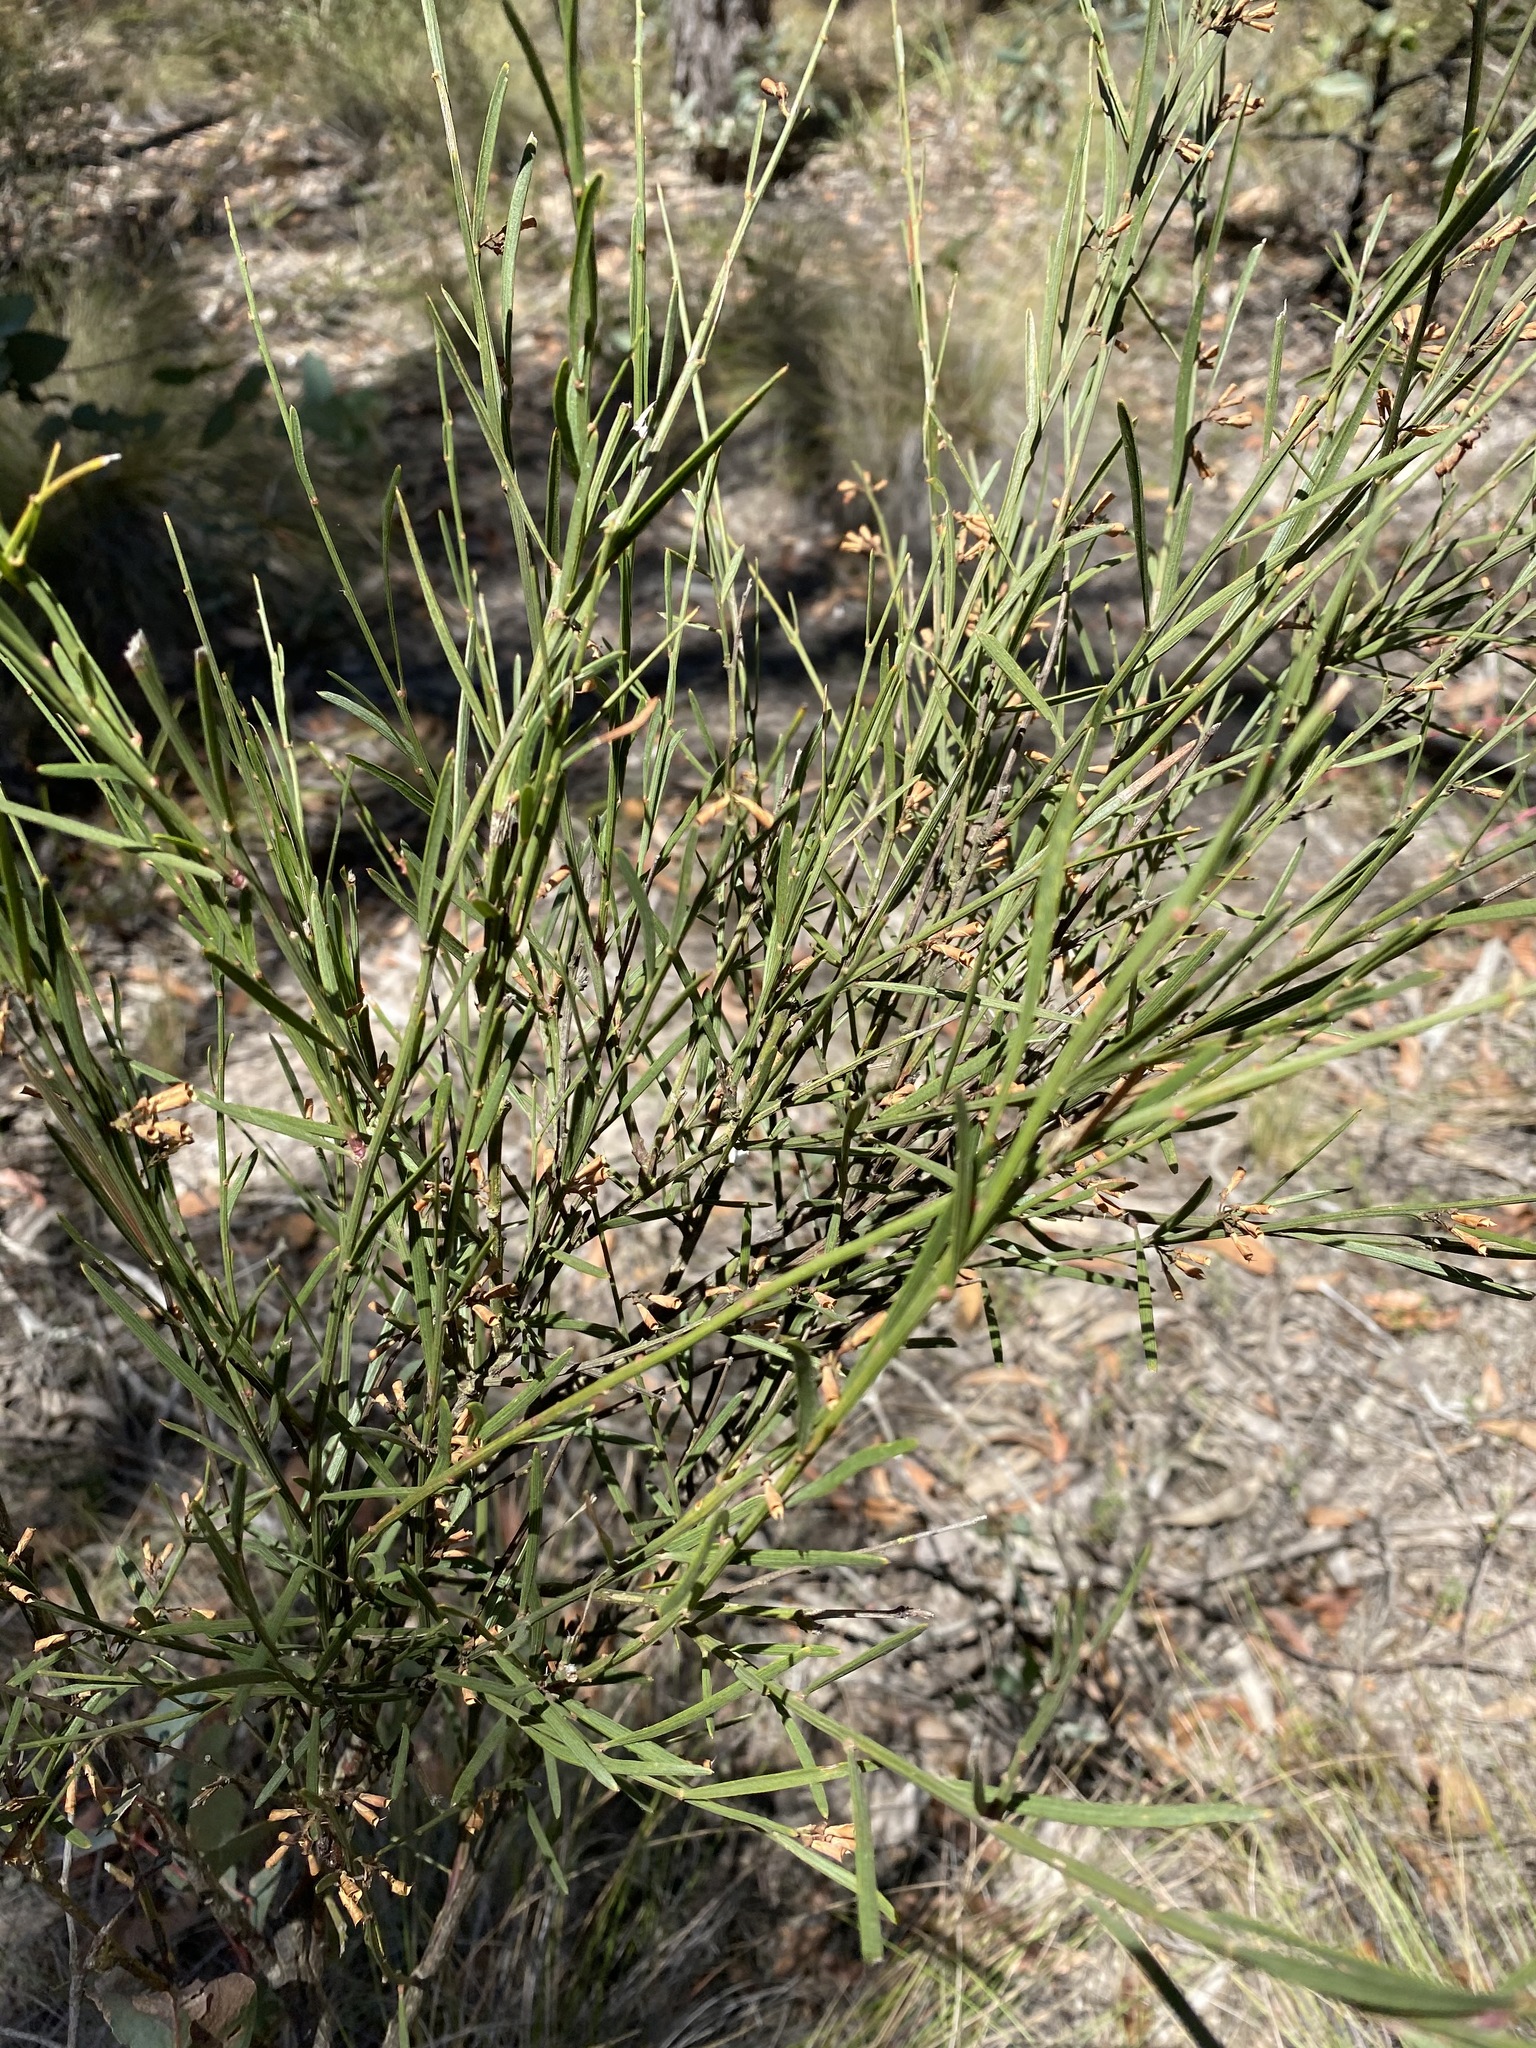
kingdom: Plantae
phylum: Tracheophyta
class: Magnoliopsida
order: Fabales
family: Fabaceae
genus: Daviesia
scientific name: Daviesia leptophylla
